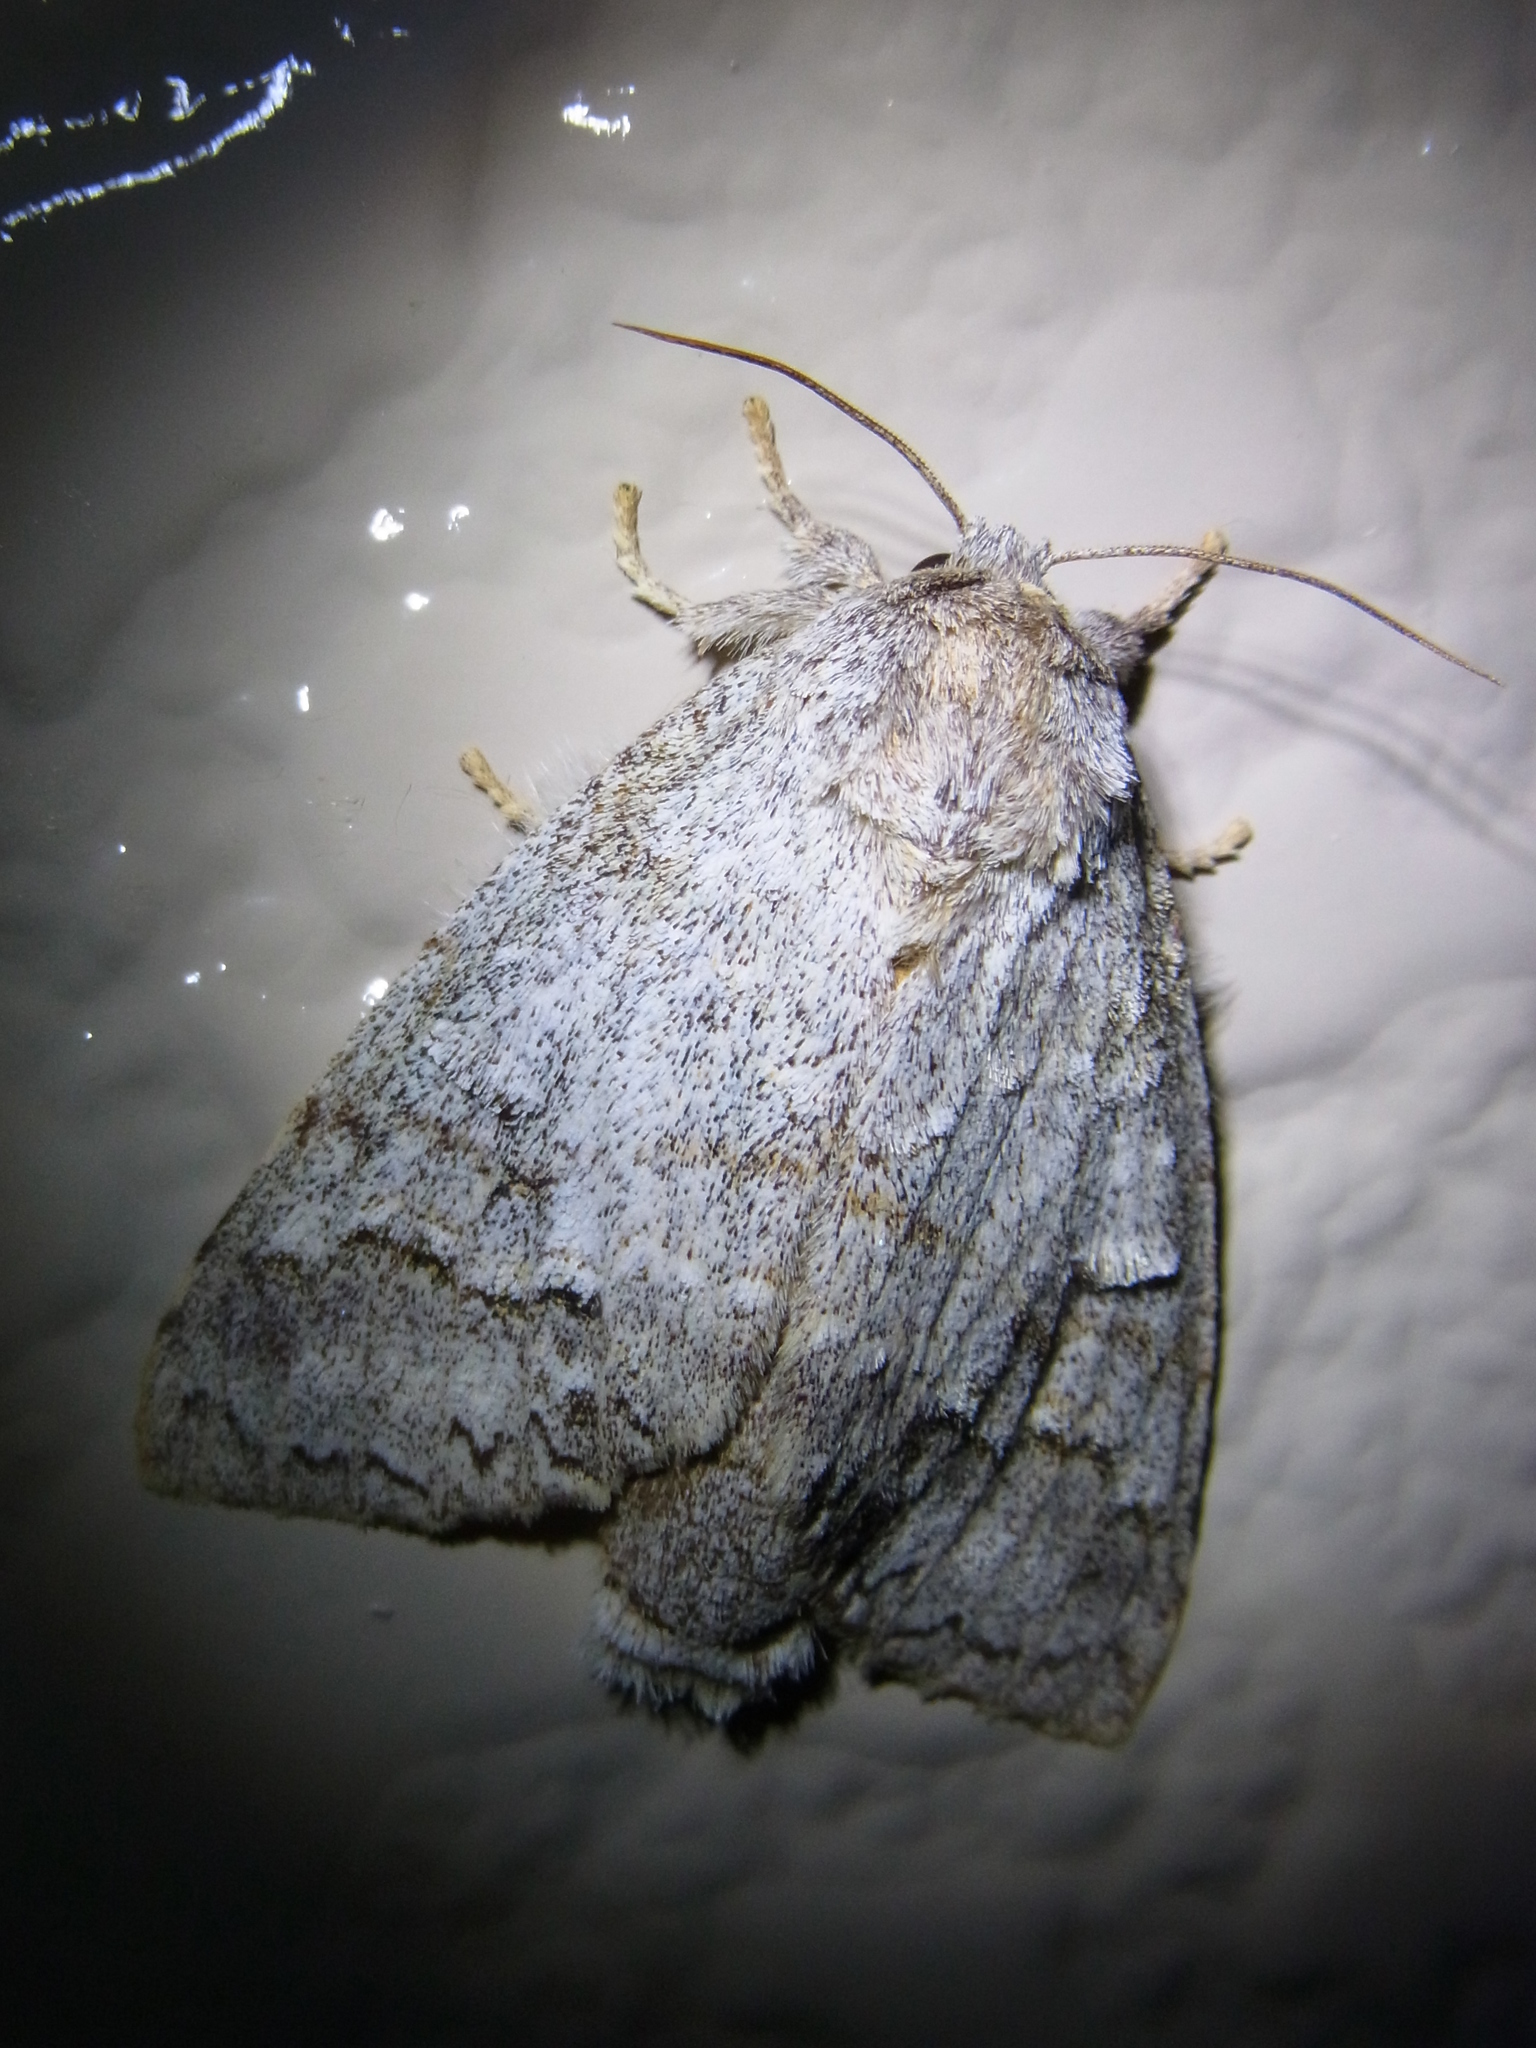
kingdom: Animalia
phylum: Arthropoda
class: Insecta
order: Lepidoptera
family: Notodontidae
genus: Mesophalera
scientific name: Mesophalera sigmata
